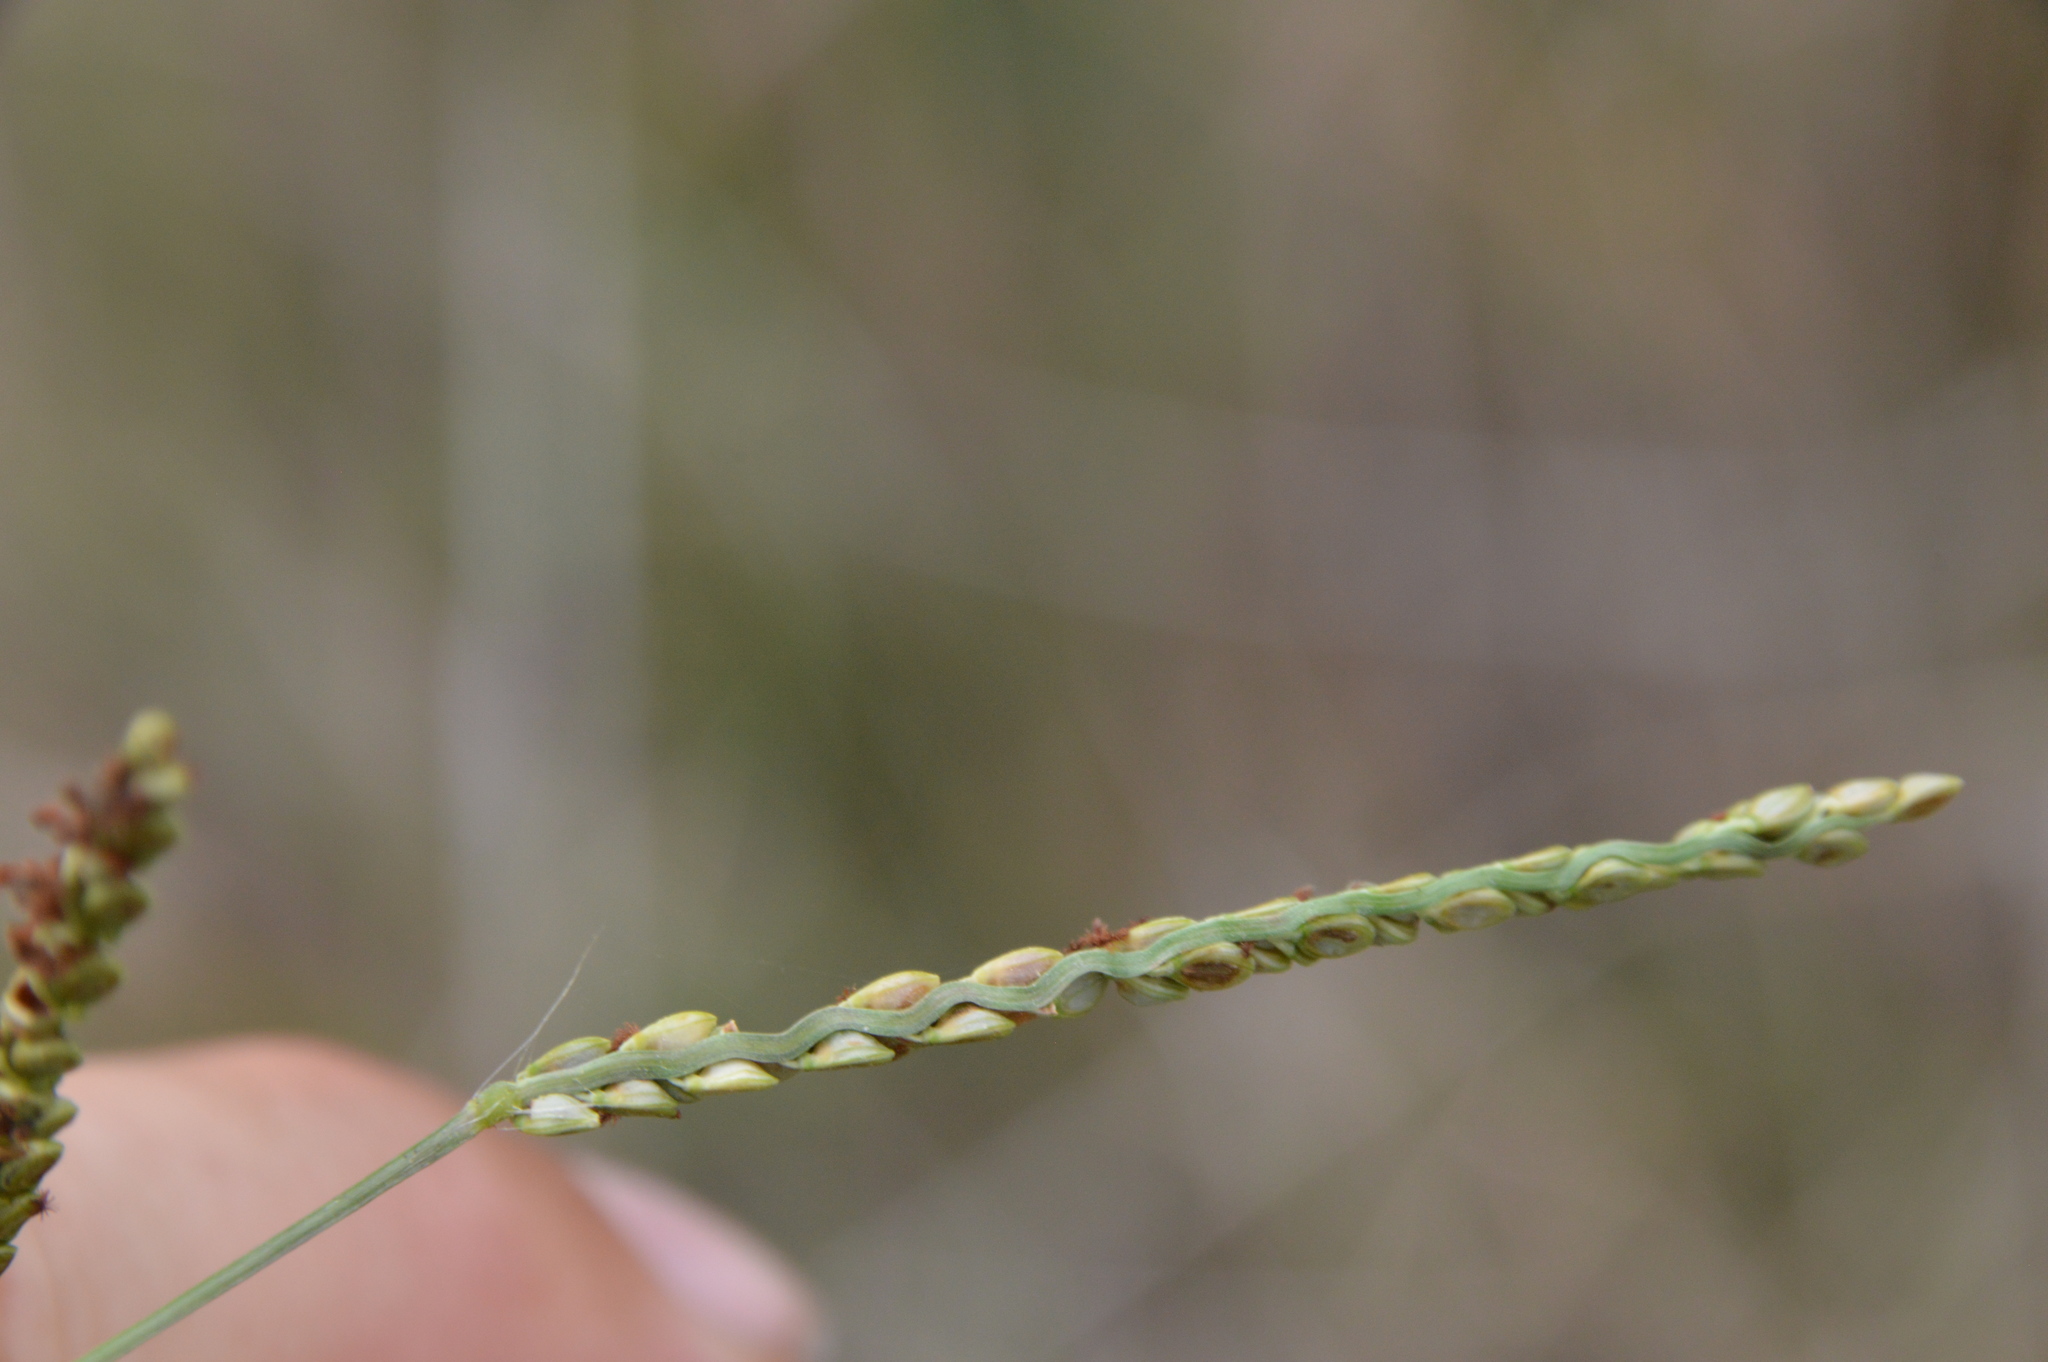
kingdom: Plantae
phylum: Tracheophyta
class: Liliopsida
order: Poales
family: Poaceae
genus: Paspalum
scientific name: Paspalum plicatulum
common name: Top paspalum
